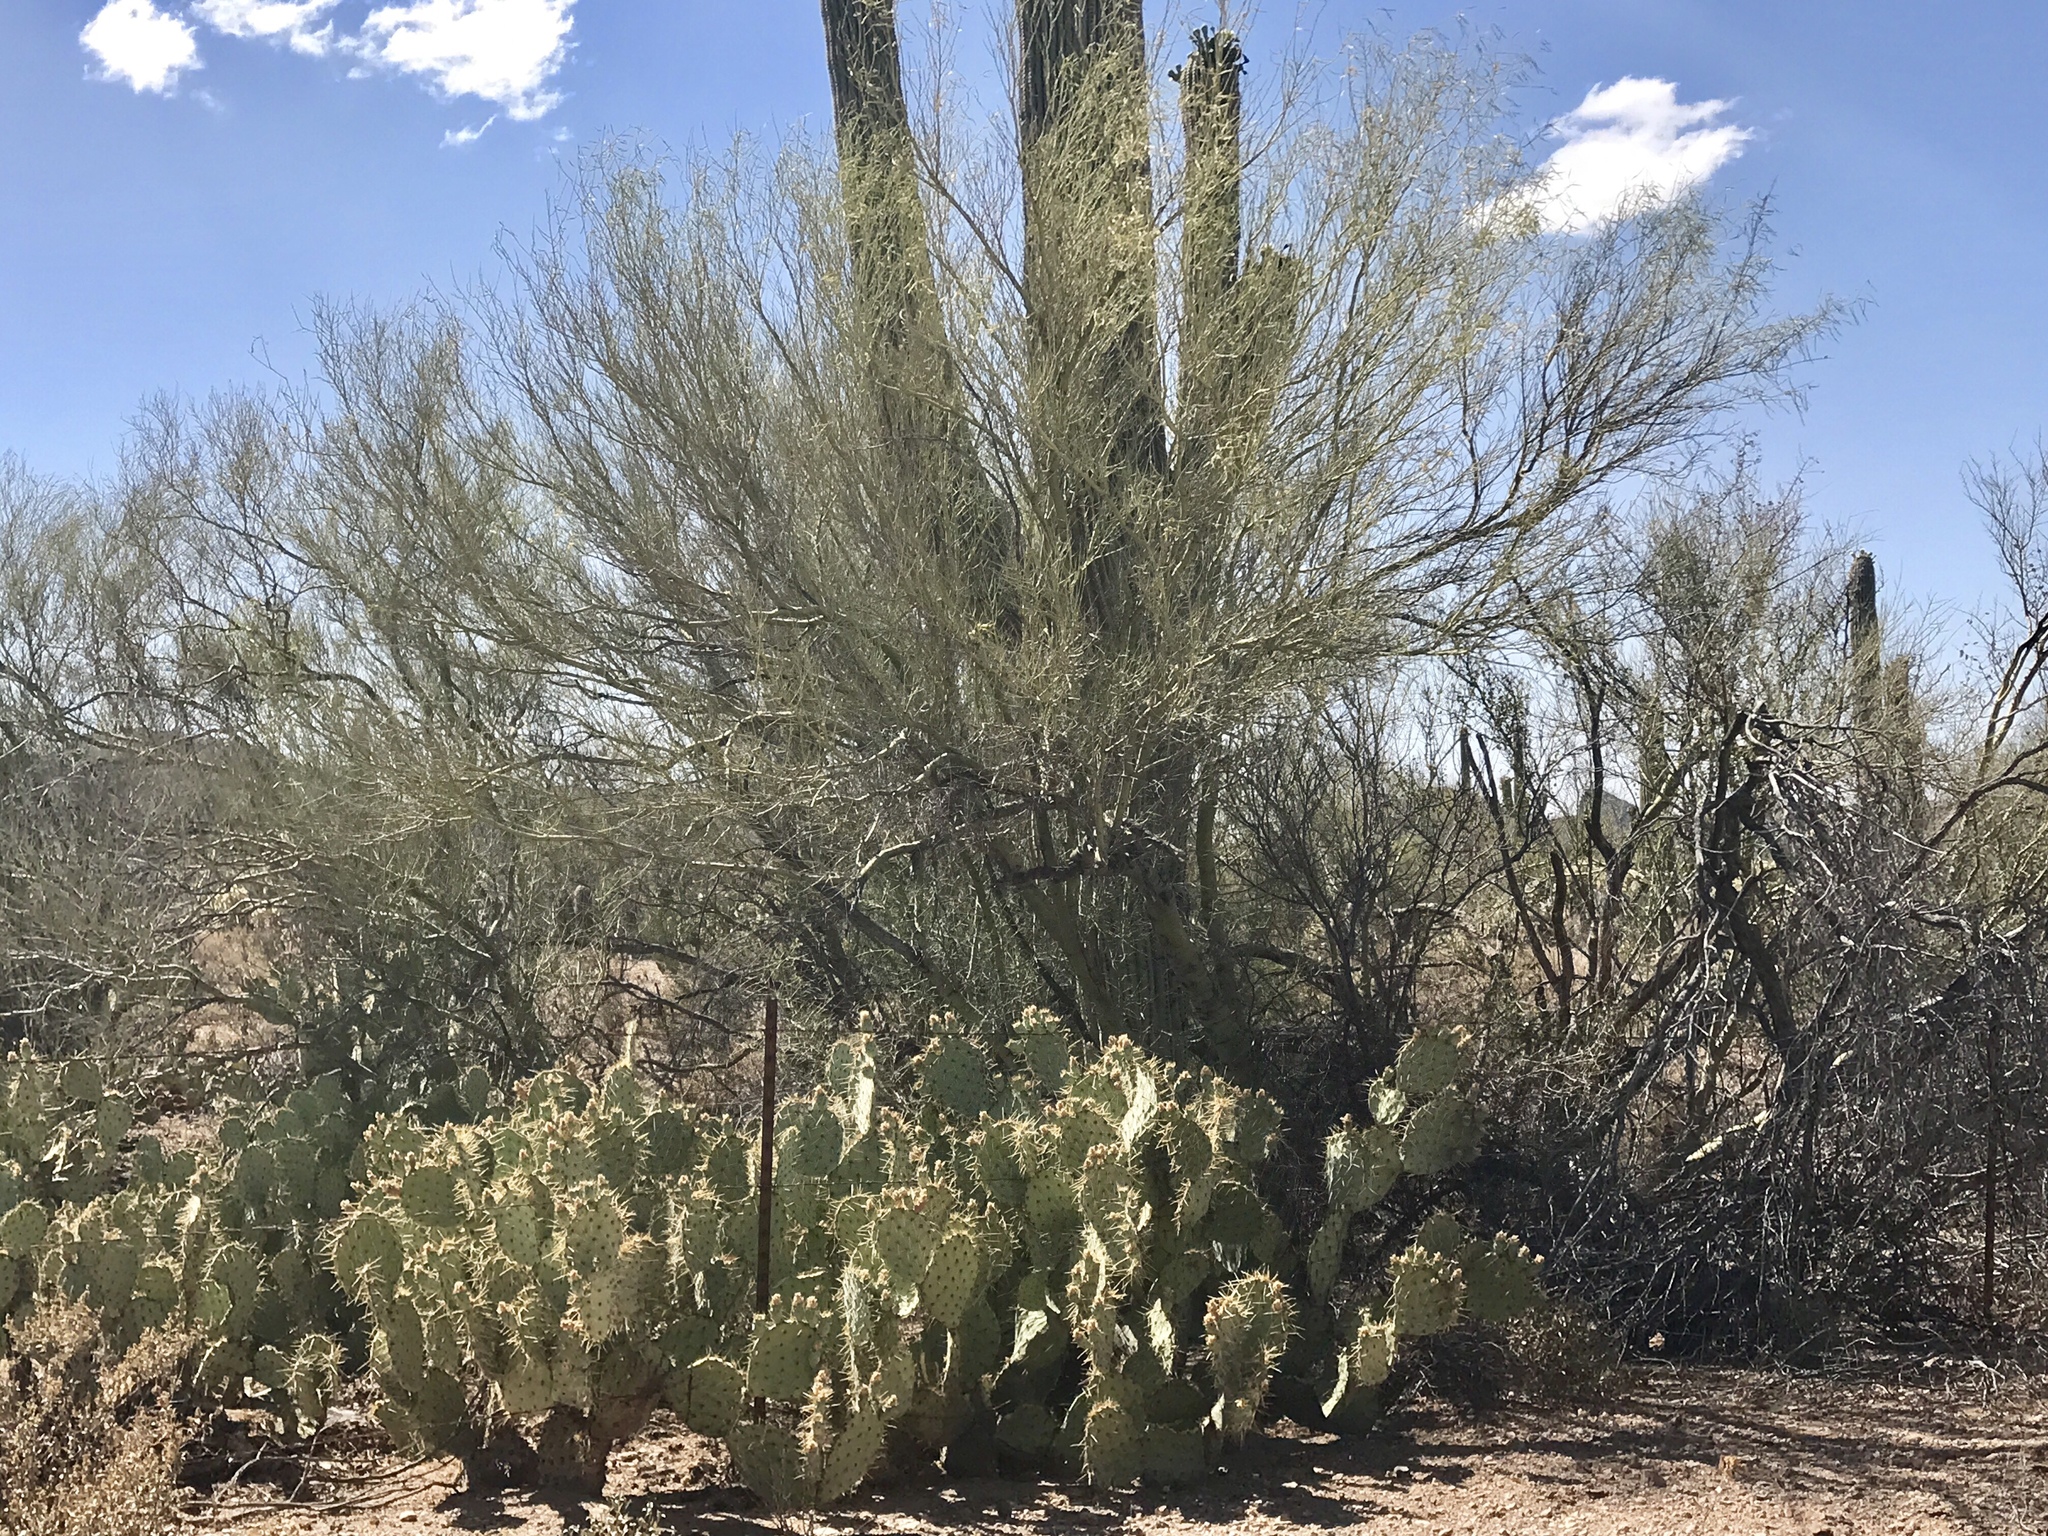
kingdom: Plantae
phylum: Tracheophyta
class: Magnoliopsida
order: Fabales
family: Fabaceae
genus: Parkinsonia
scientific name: Parkinsonia microphylla
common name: Yellow paloverde
